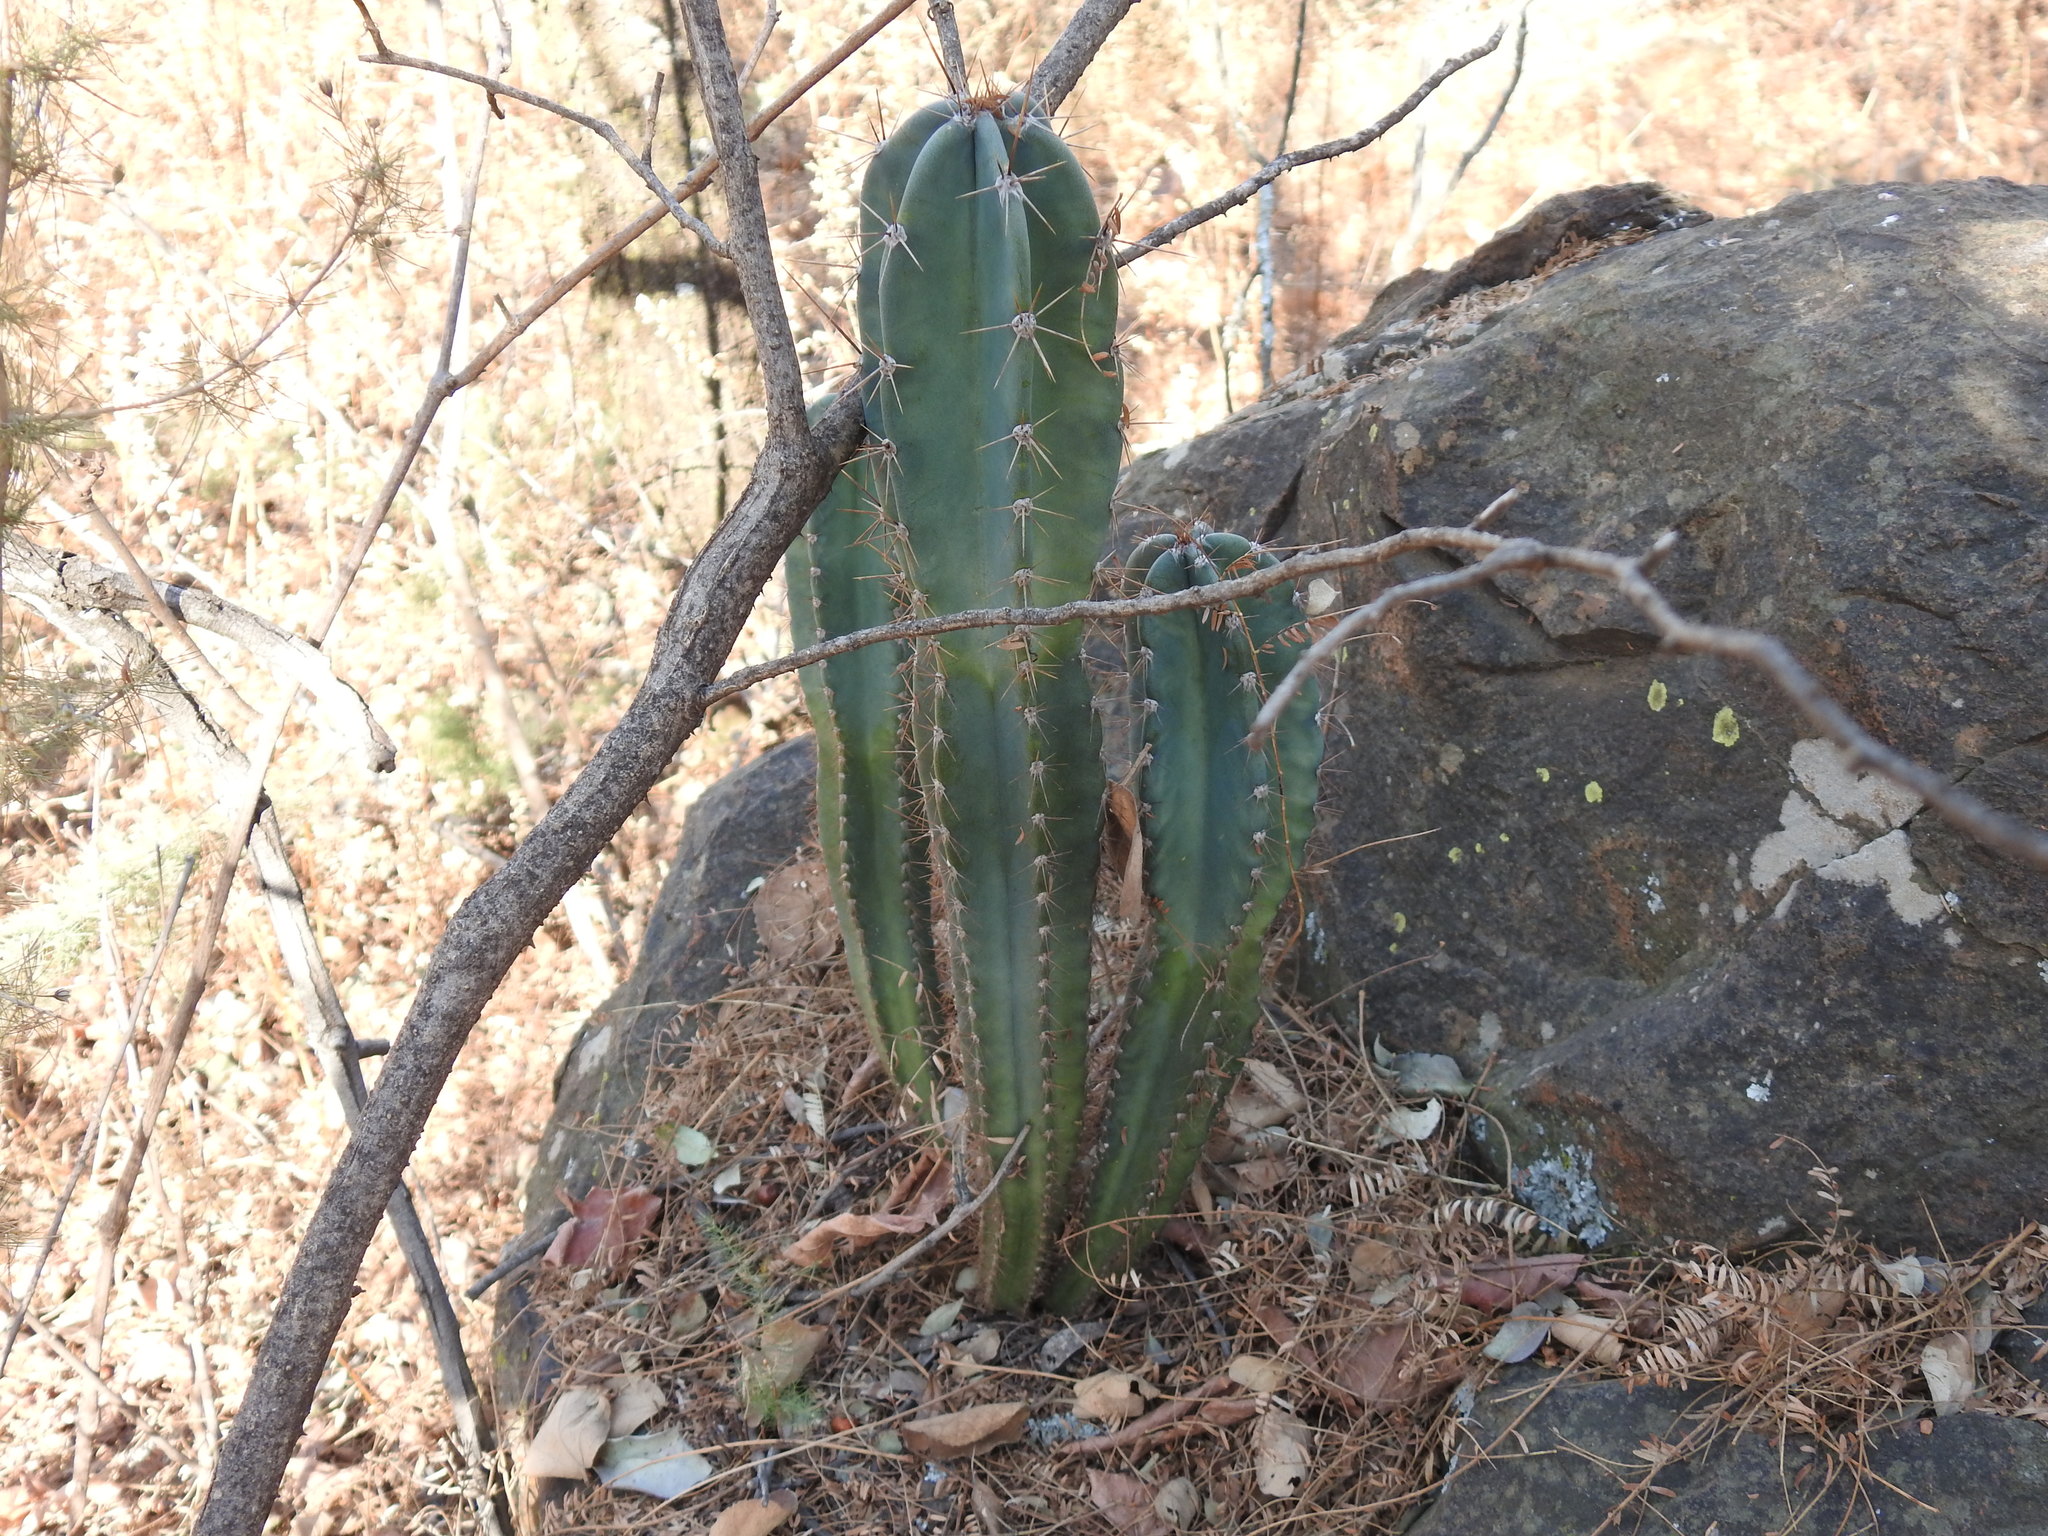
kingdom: Plantae
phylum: Tracheophyta
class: Magnoliopsida
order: Caryophyllales
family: Cactaceae
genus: Cereus
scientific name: Cereus jamacaru
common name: Queen-of-the-night
